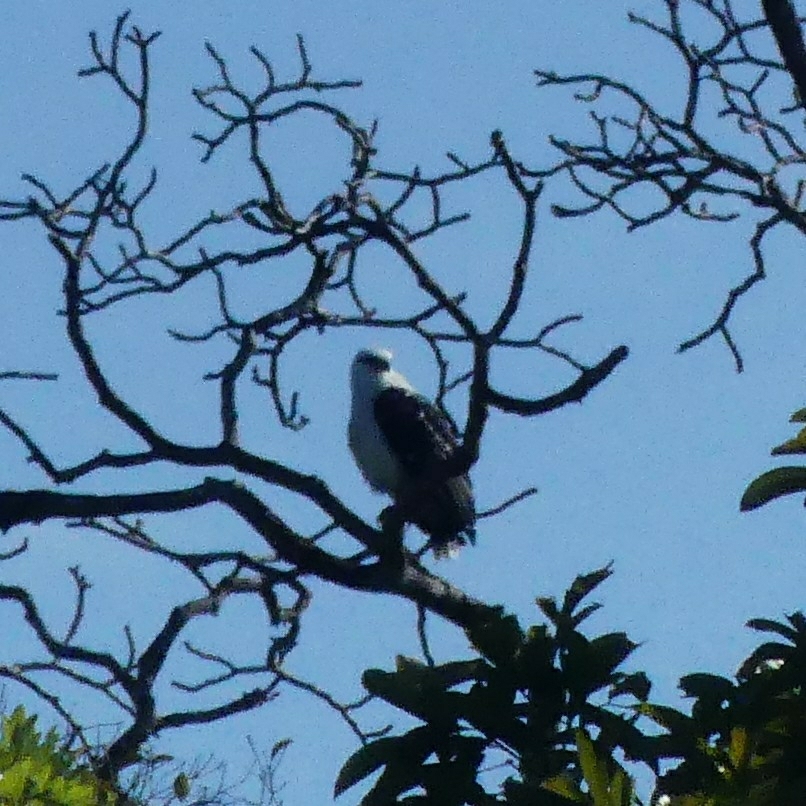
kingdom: Animalia
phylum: Chordata
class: Aves
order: Accipitriformes
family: Accipitridae
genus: Leucopternis
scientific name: Leucopternis albicollis
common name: White hawk
